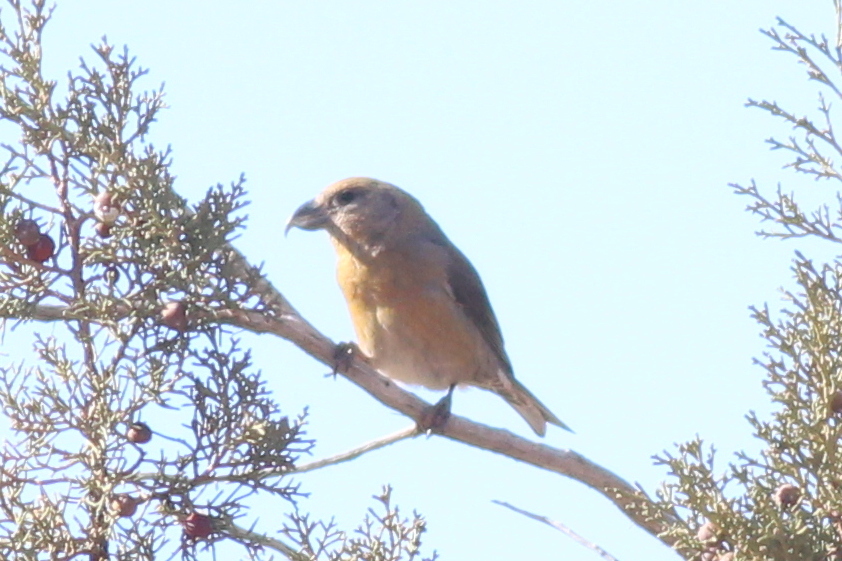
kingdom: Animalia
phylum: Chordata
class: Aves
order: Passeriformes
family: Fringillidae
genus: Loxia
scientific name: Loxia curvirostra
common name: Red crossbill
